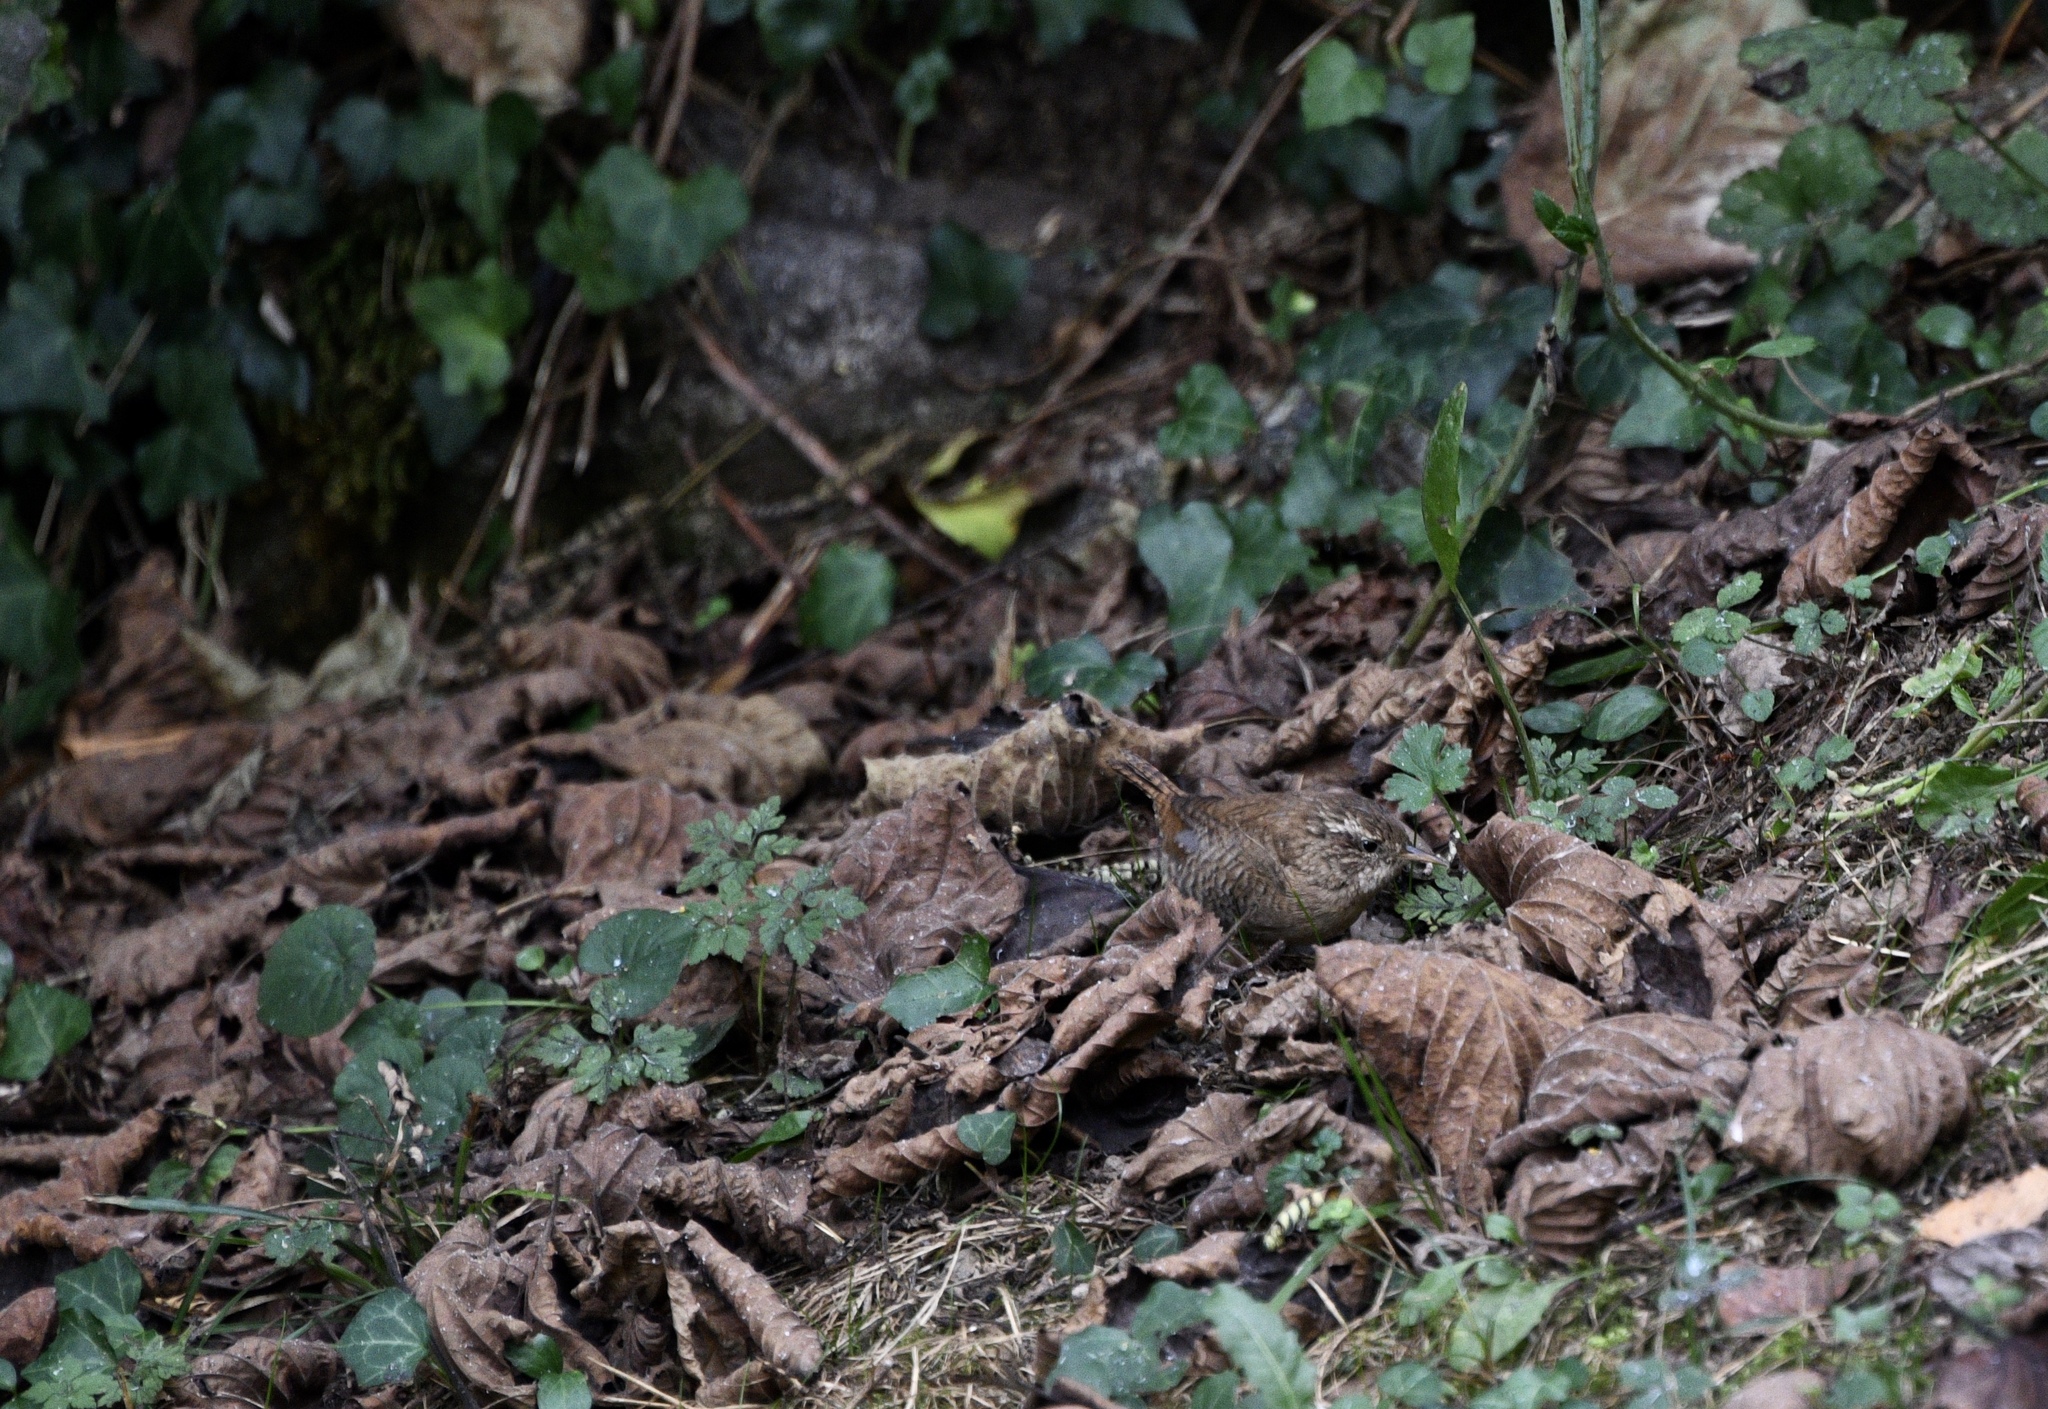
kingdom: Animalia
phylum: Chordata
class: Aves
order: Passeriformes
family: Troglodytidae
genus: Troglodytes
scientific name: Troglodytes troglodytes
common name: Eurasian wren
